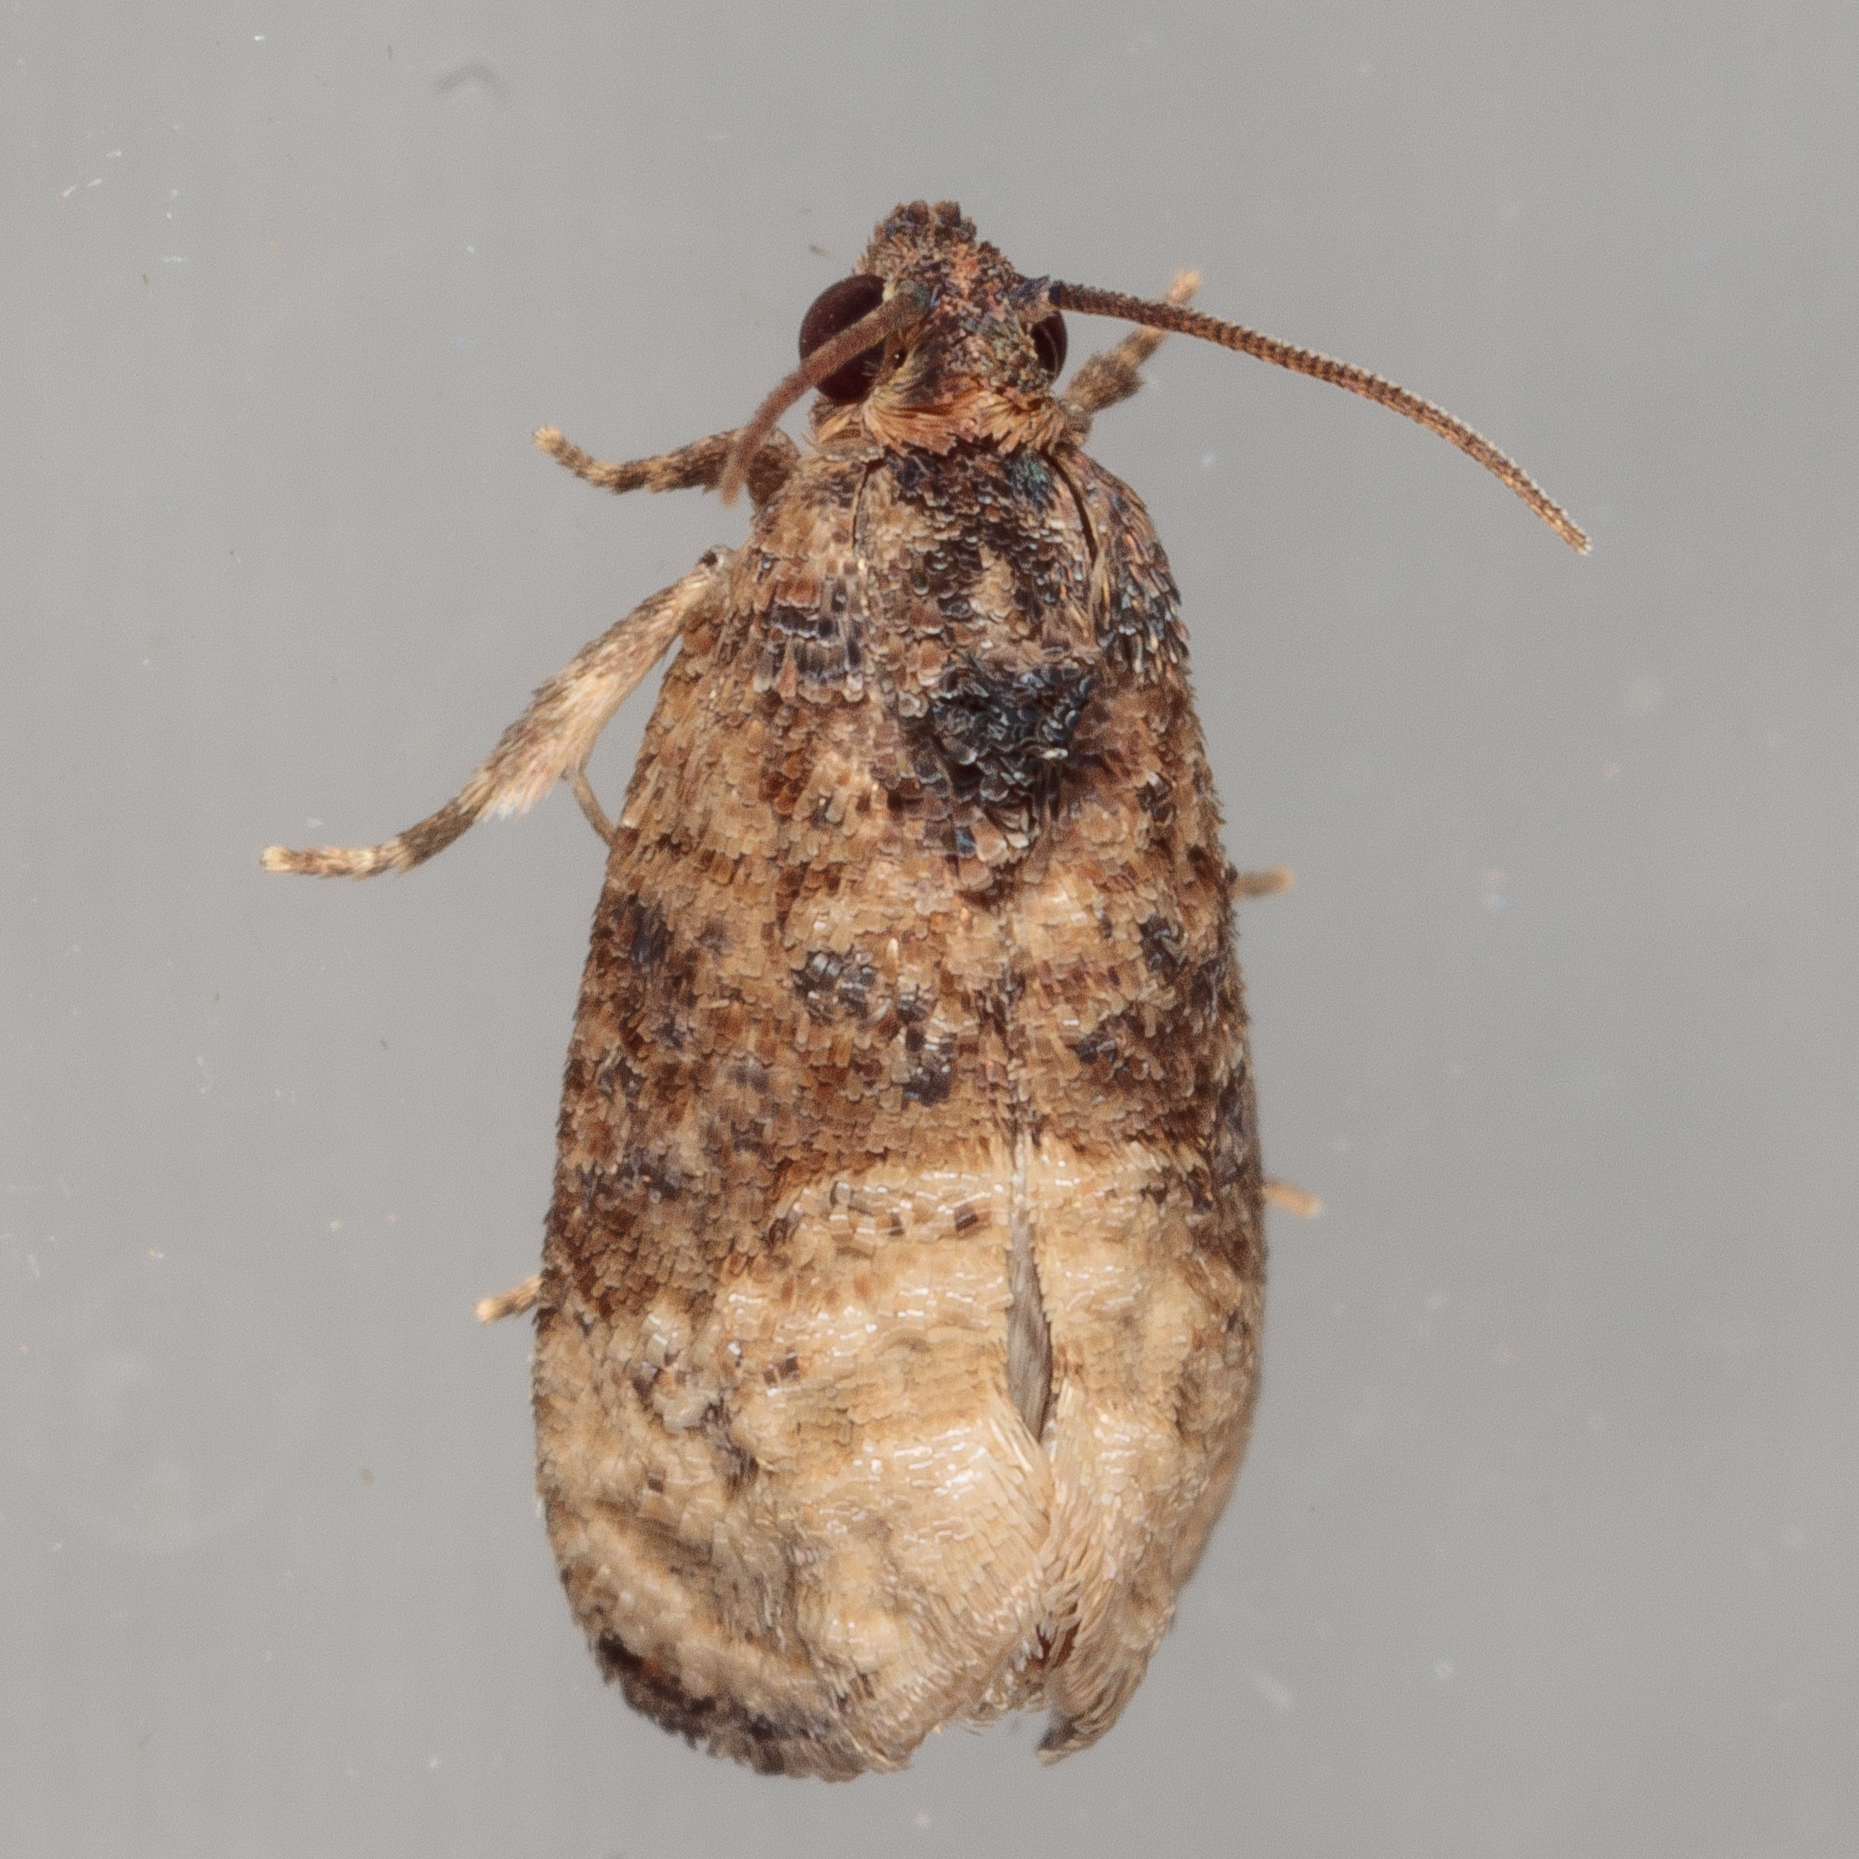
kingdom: Animalia
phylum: Arthropoda
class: Insecta
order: Lepidoptera
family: Tortricidae
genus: Ecdytolopha
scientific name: Ecdytolopha mana
